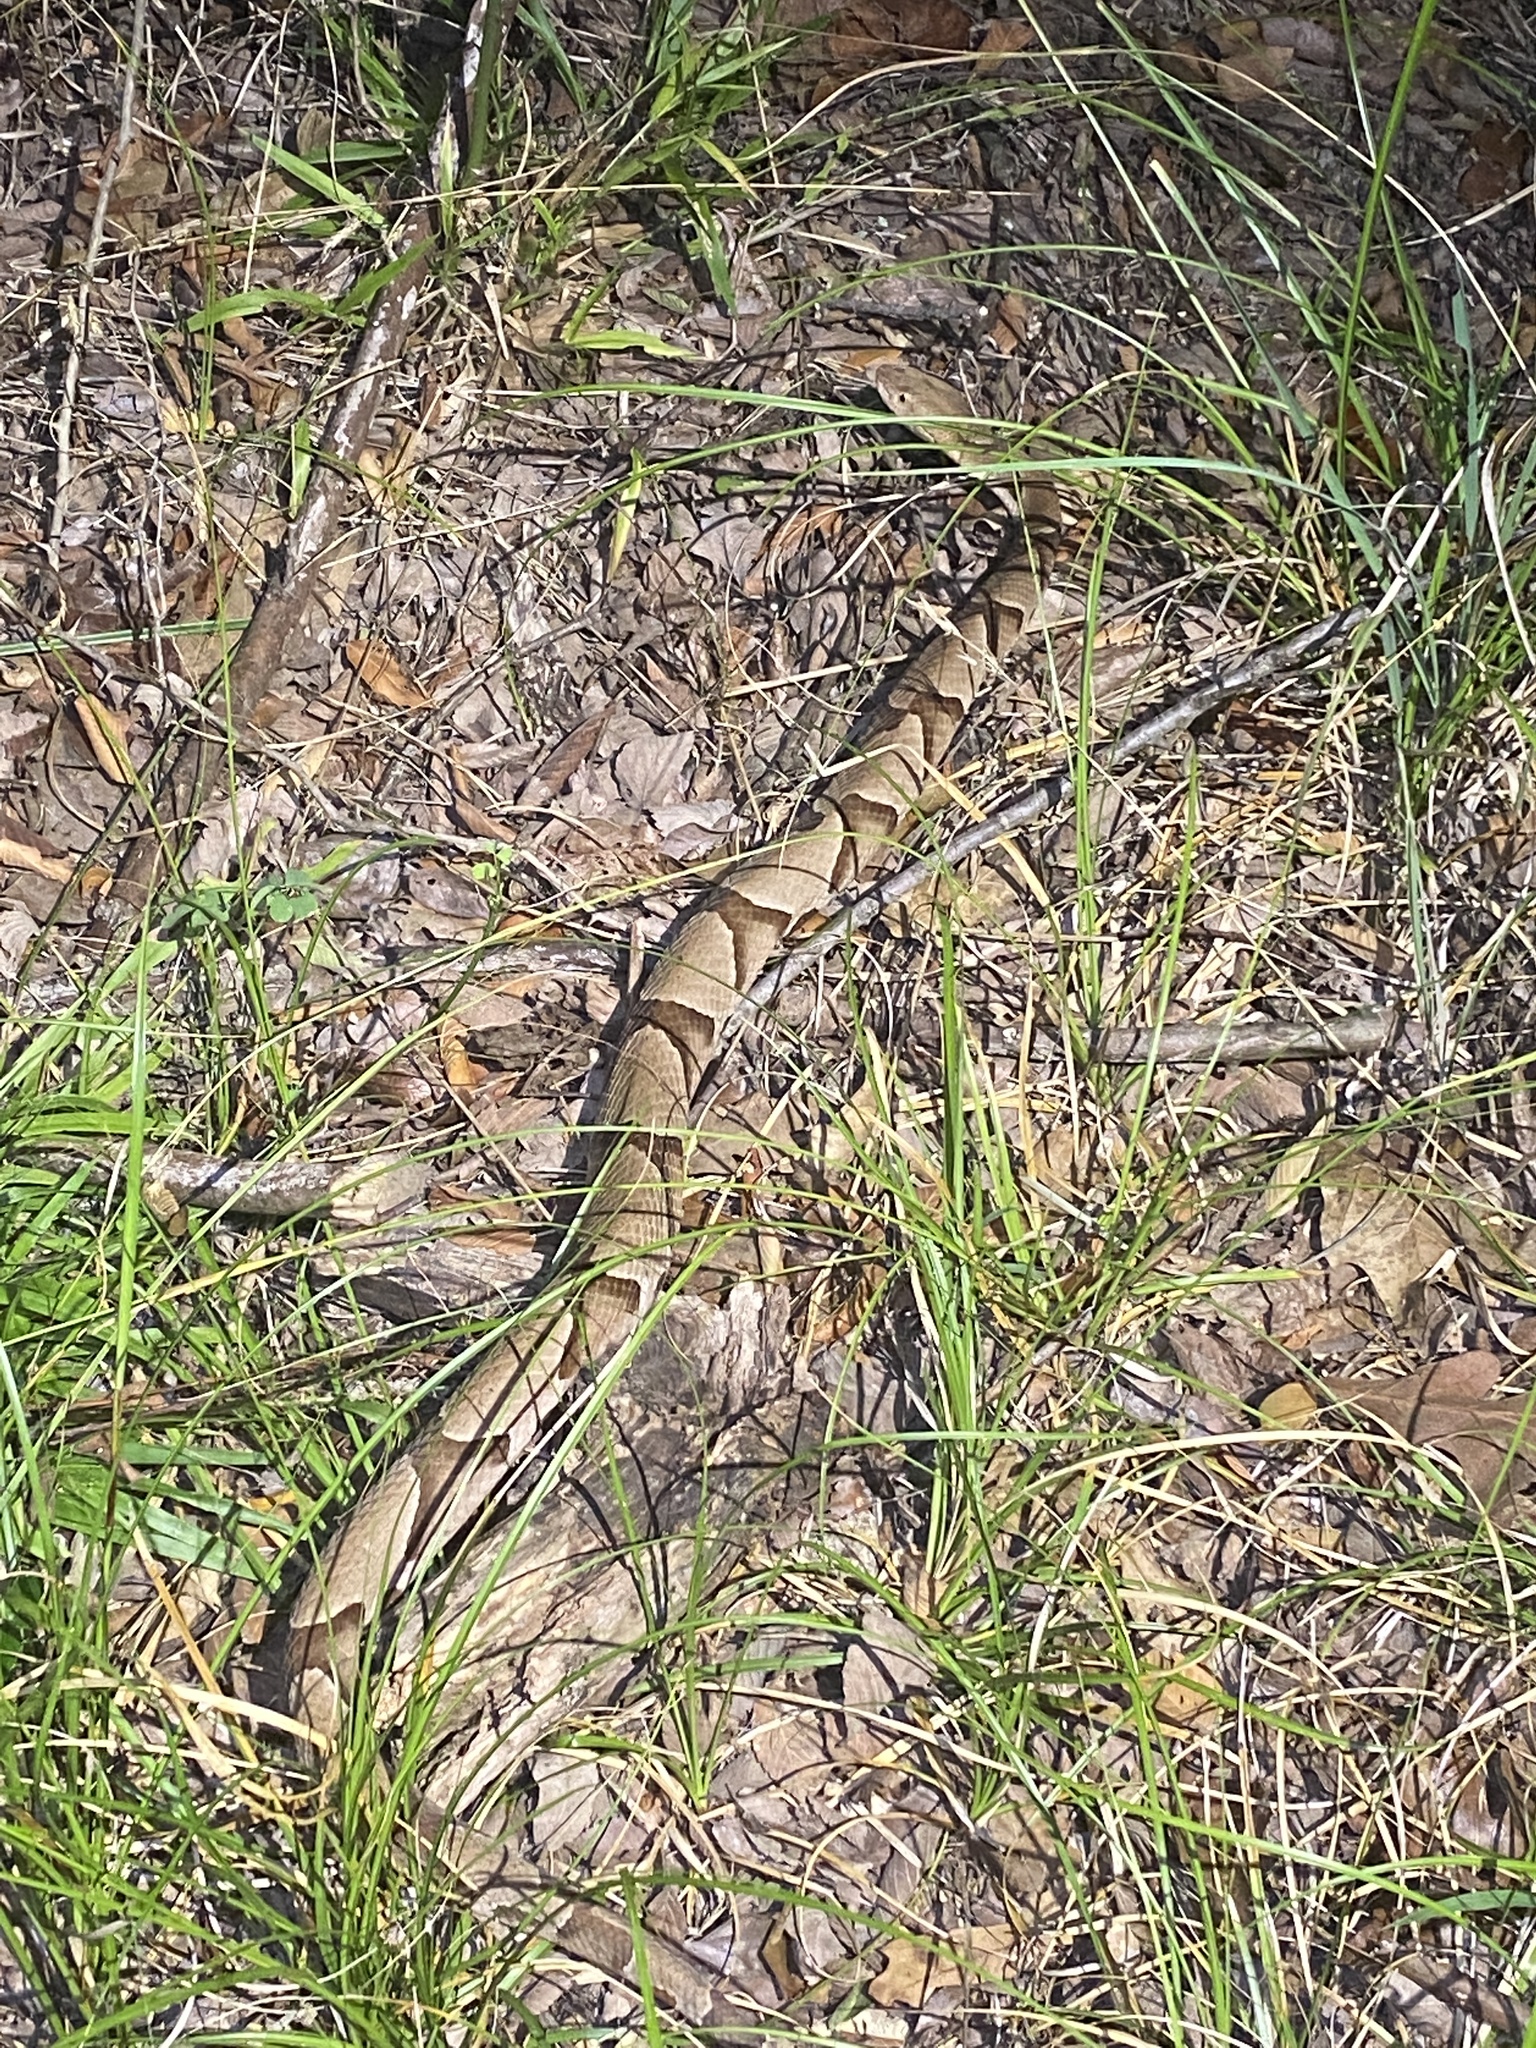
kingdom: Animalia
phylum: Chordata
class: Squamata
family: Viperidae
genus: Agkistrodon
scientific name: Agkistrodon contortrix
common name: Northern copperhead
